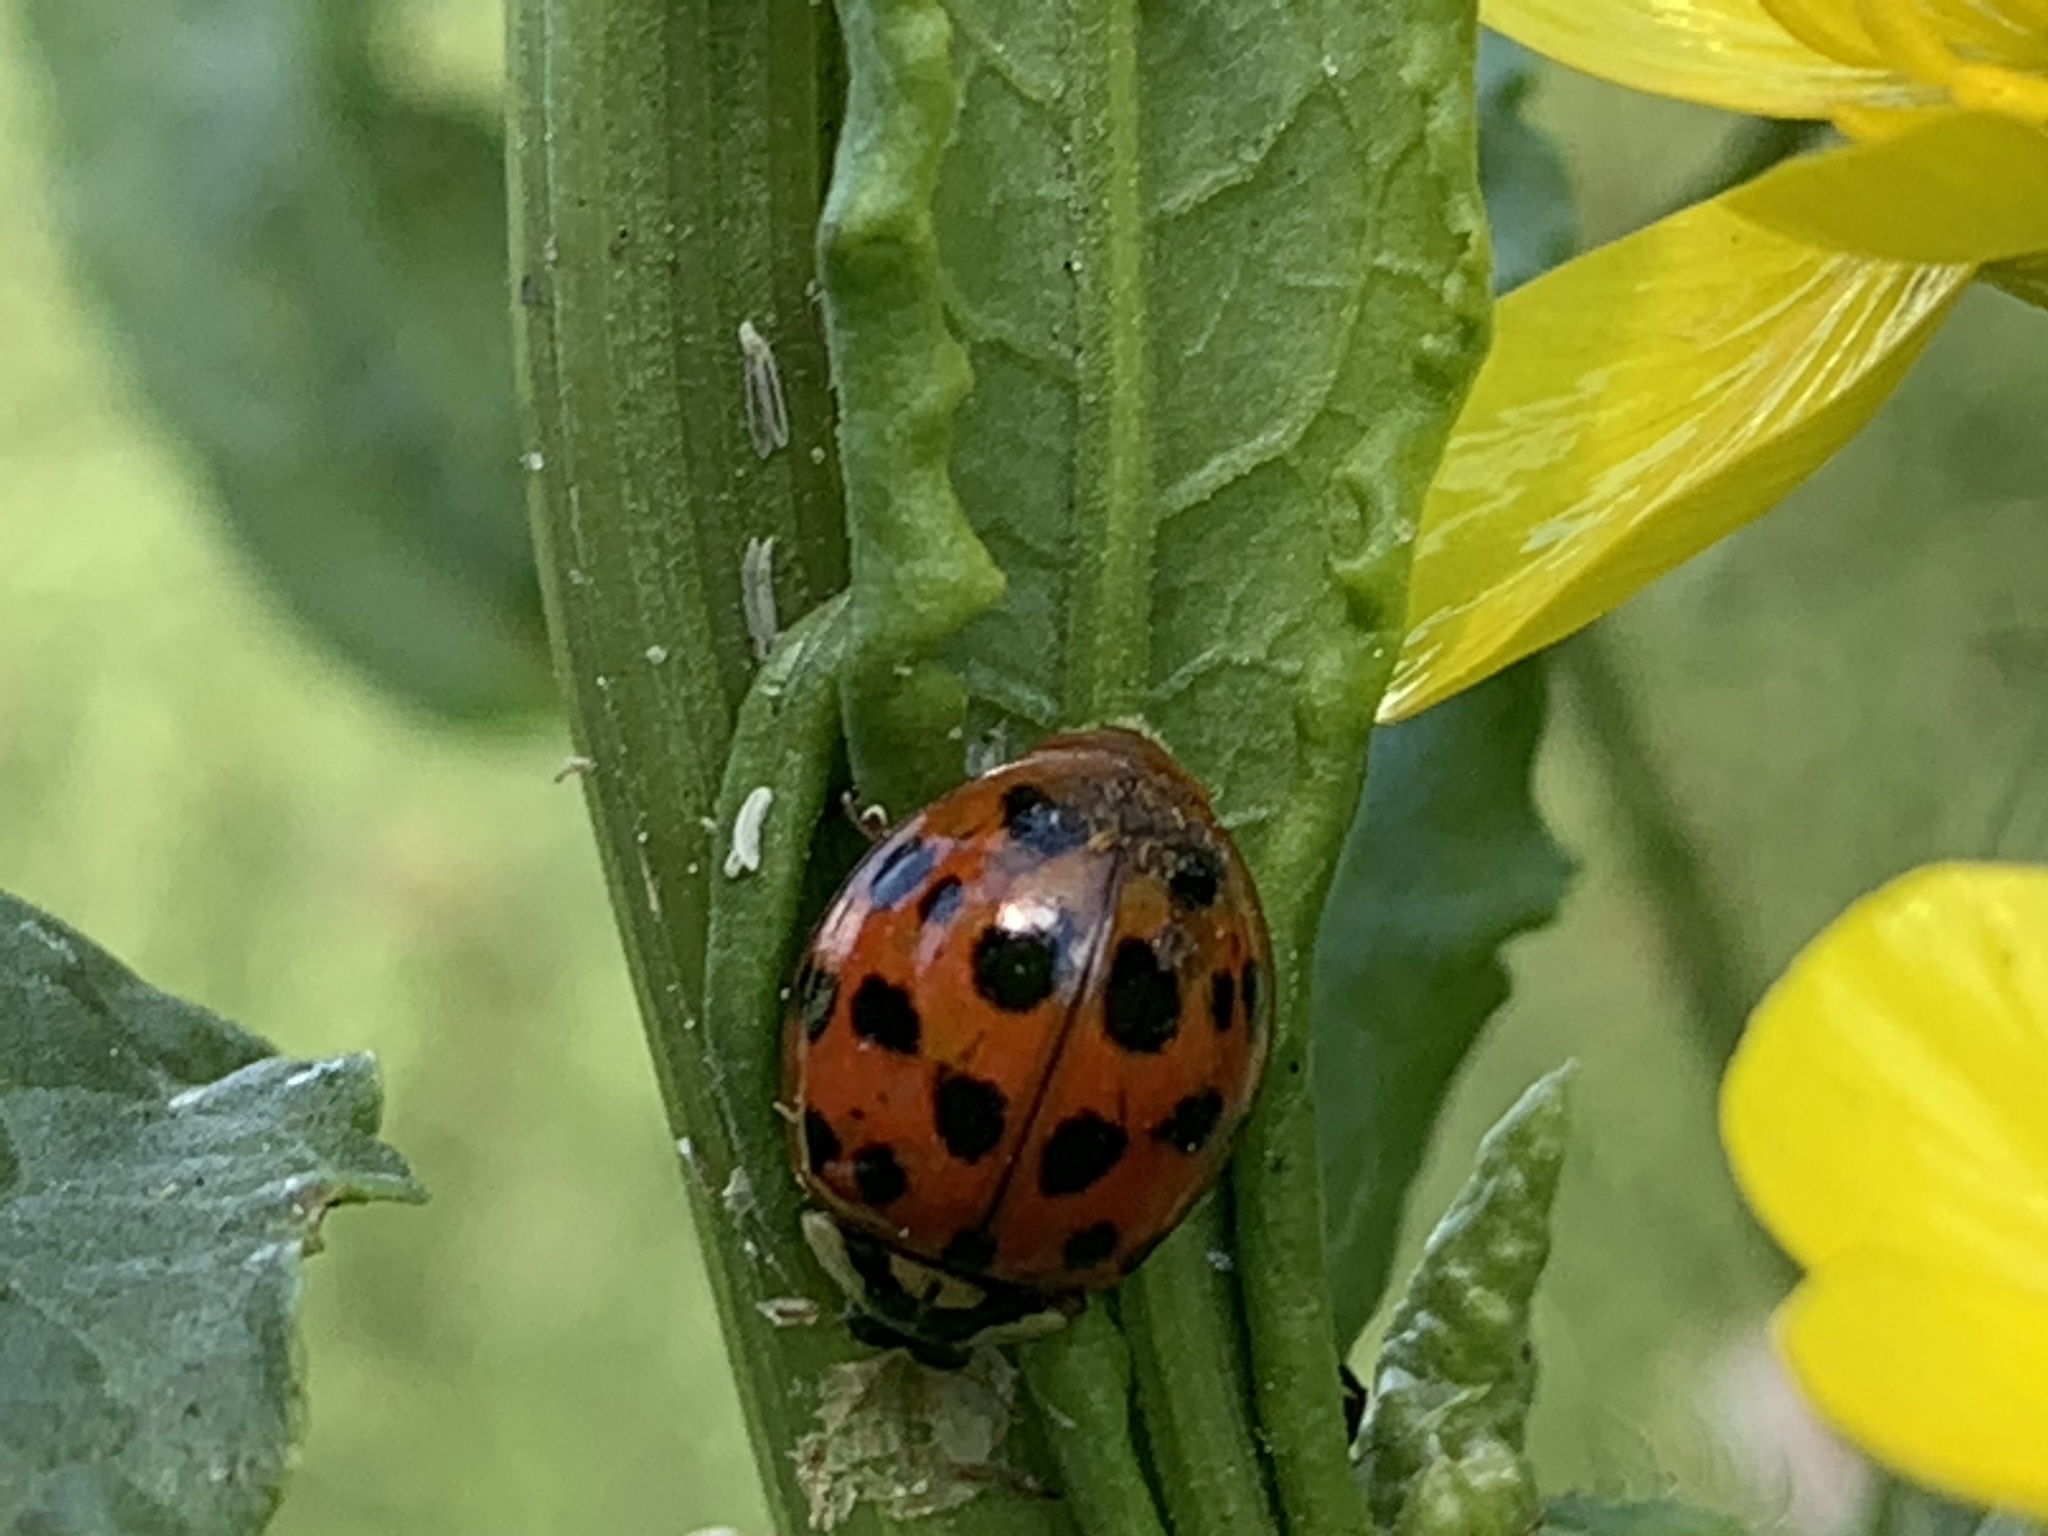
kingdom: Animalia
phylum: Arthropoda
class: Insecta
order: Coleoptera
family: Coccinellidae
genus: Harmonia
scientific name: Harmonia axyridis
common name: Harlequin ladybird
